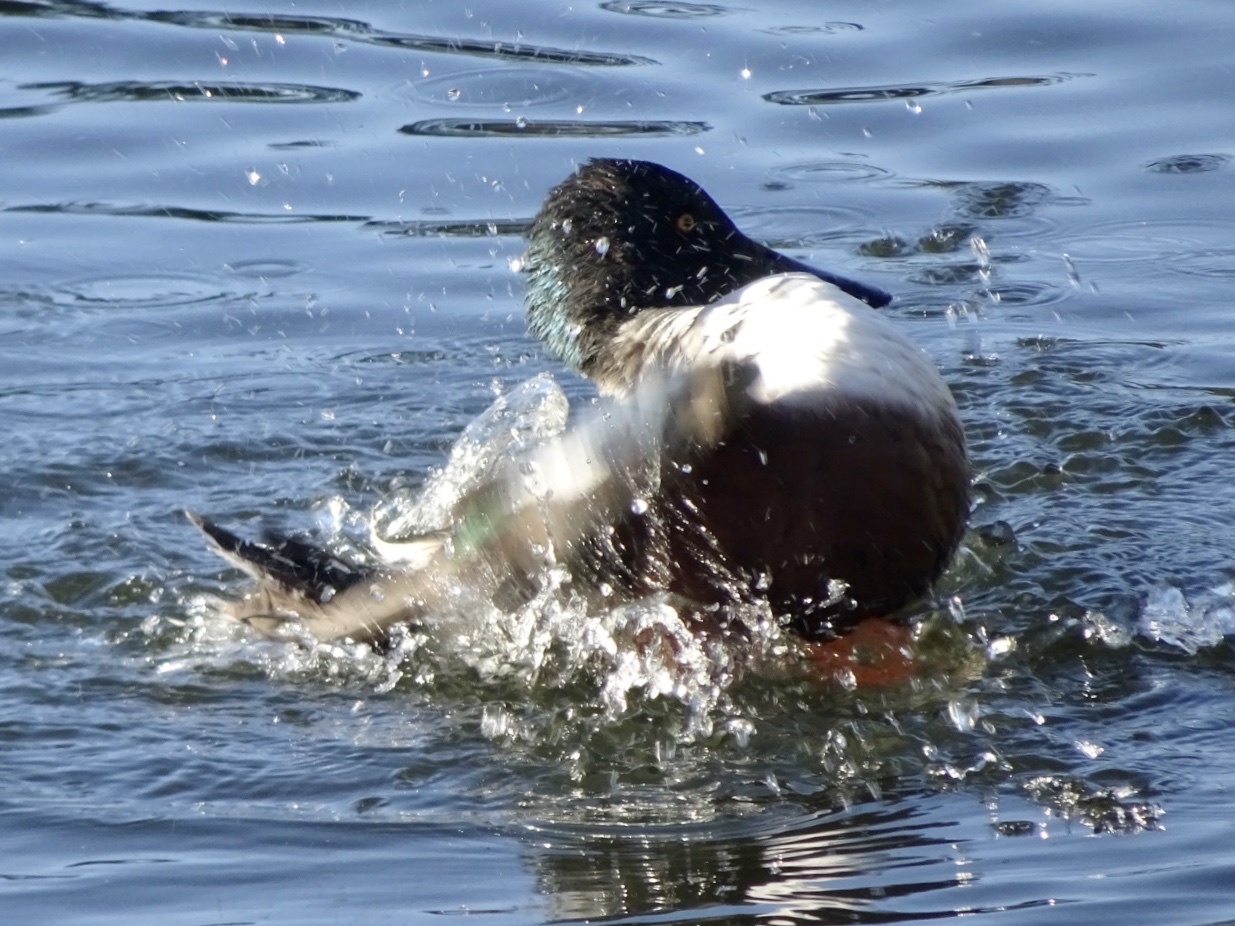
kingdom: Animalia
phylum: Chordata
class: Aves
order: Anseriformes
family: Anatidae
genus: Spatula
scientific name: Spatula clypeata
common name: Northern shoveler
